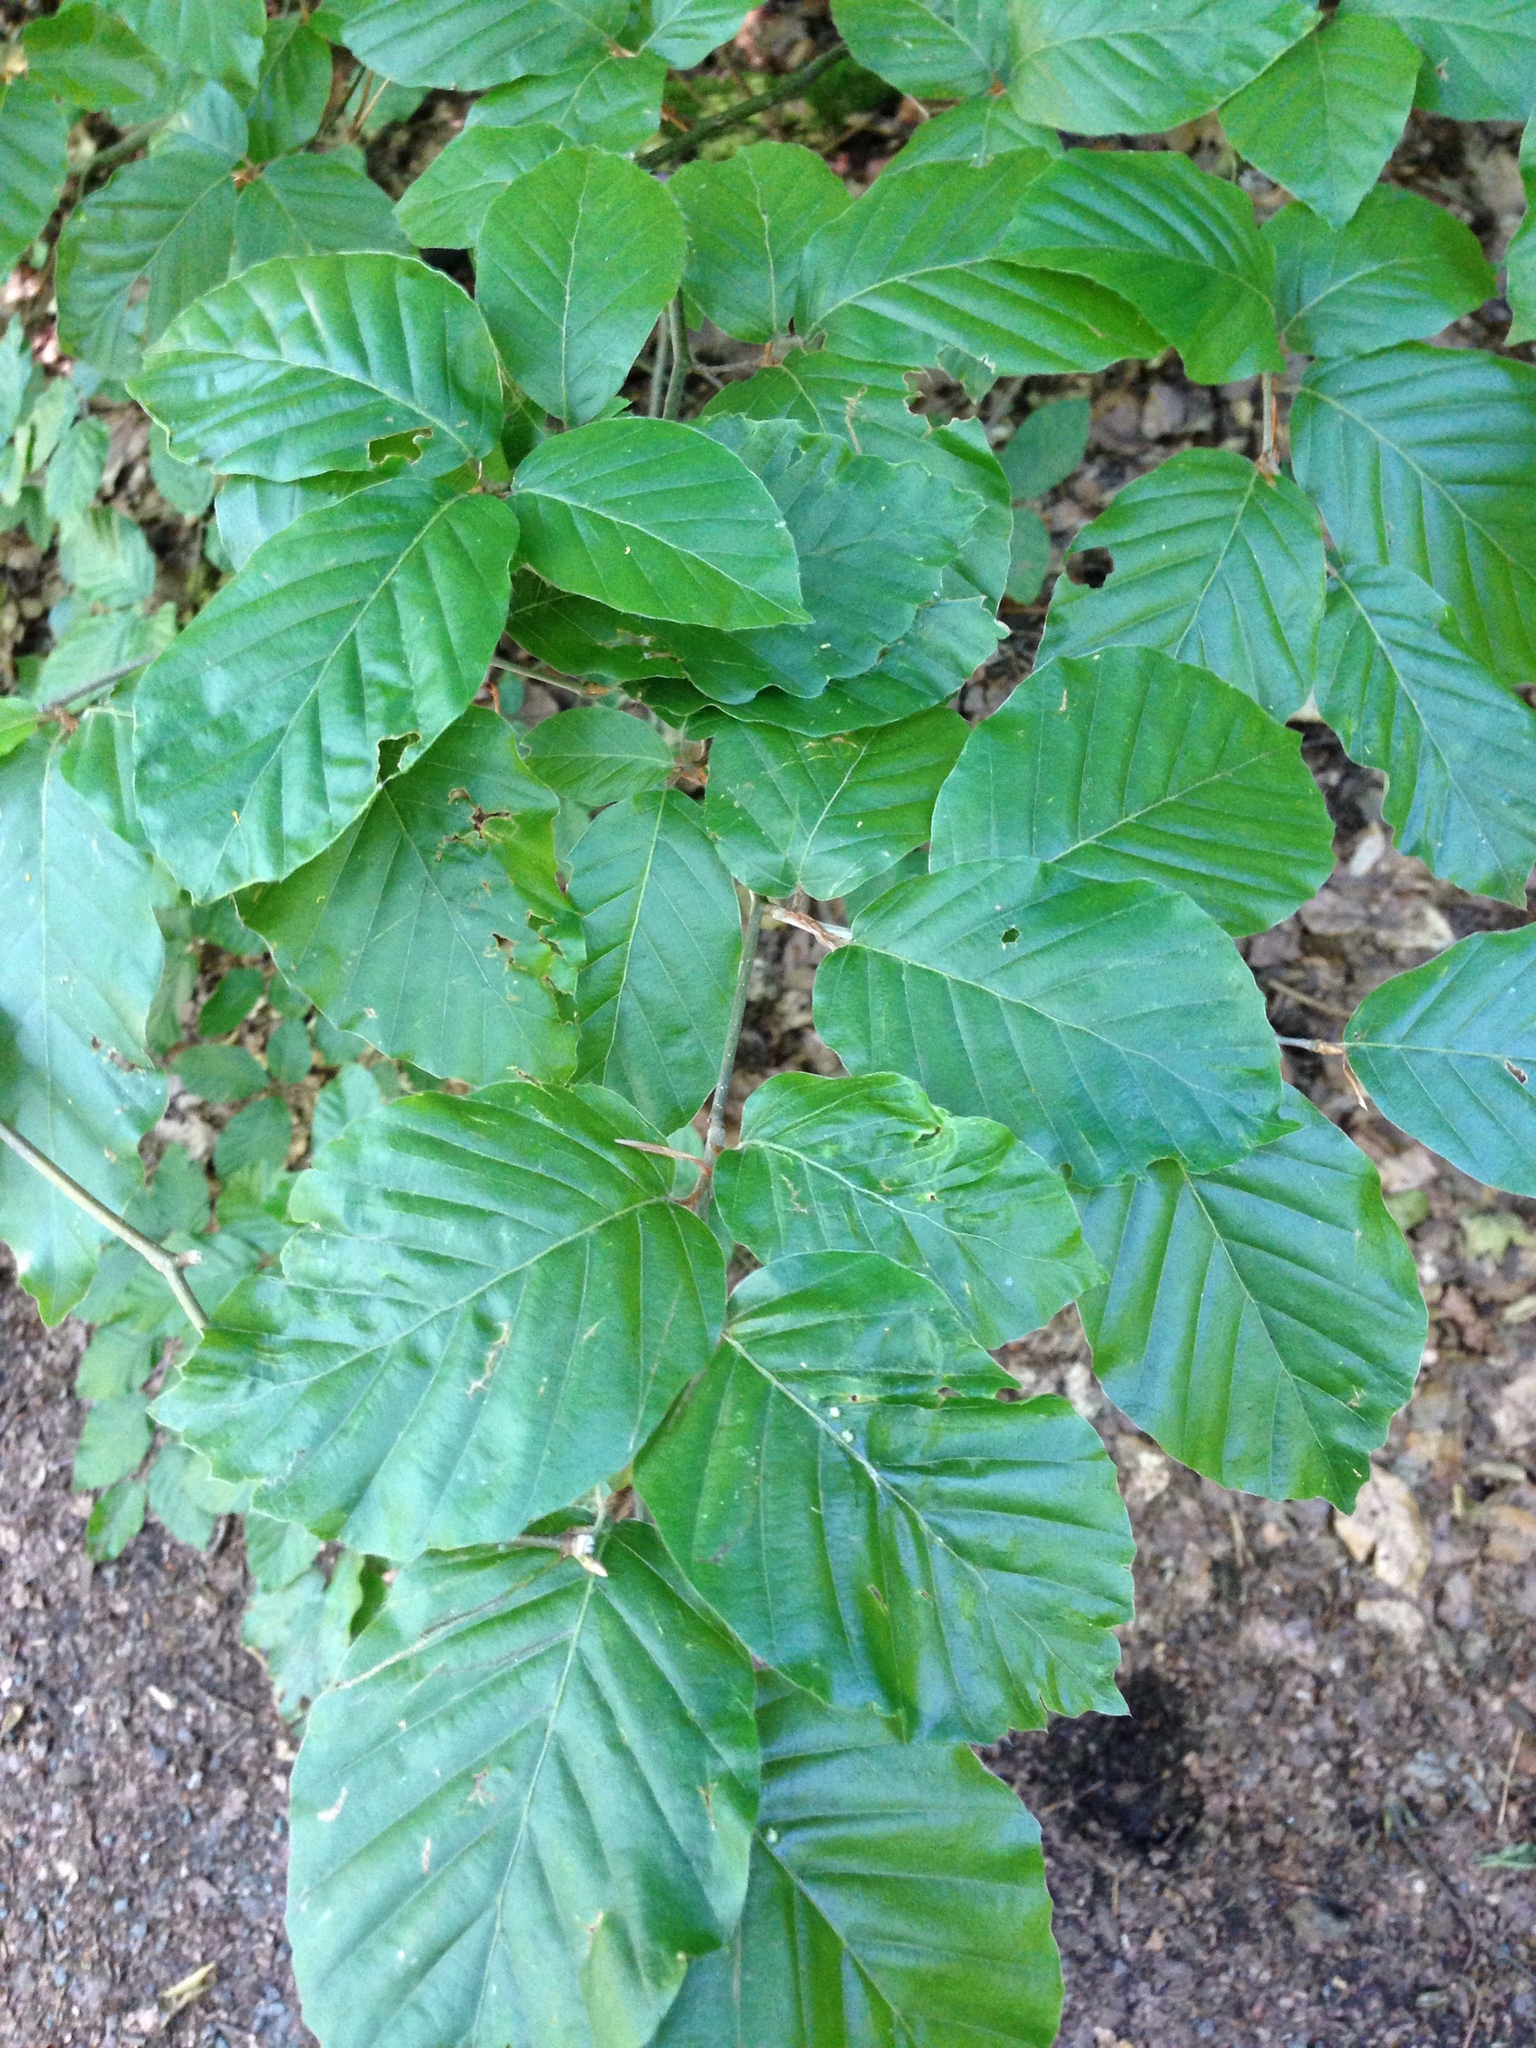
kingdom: Plantae
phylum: Tracheophyta
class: Magnoliopsida
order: Fagales
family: Fagaceae
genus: Fagus
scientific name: Fagus sylvatica
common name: Beech
